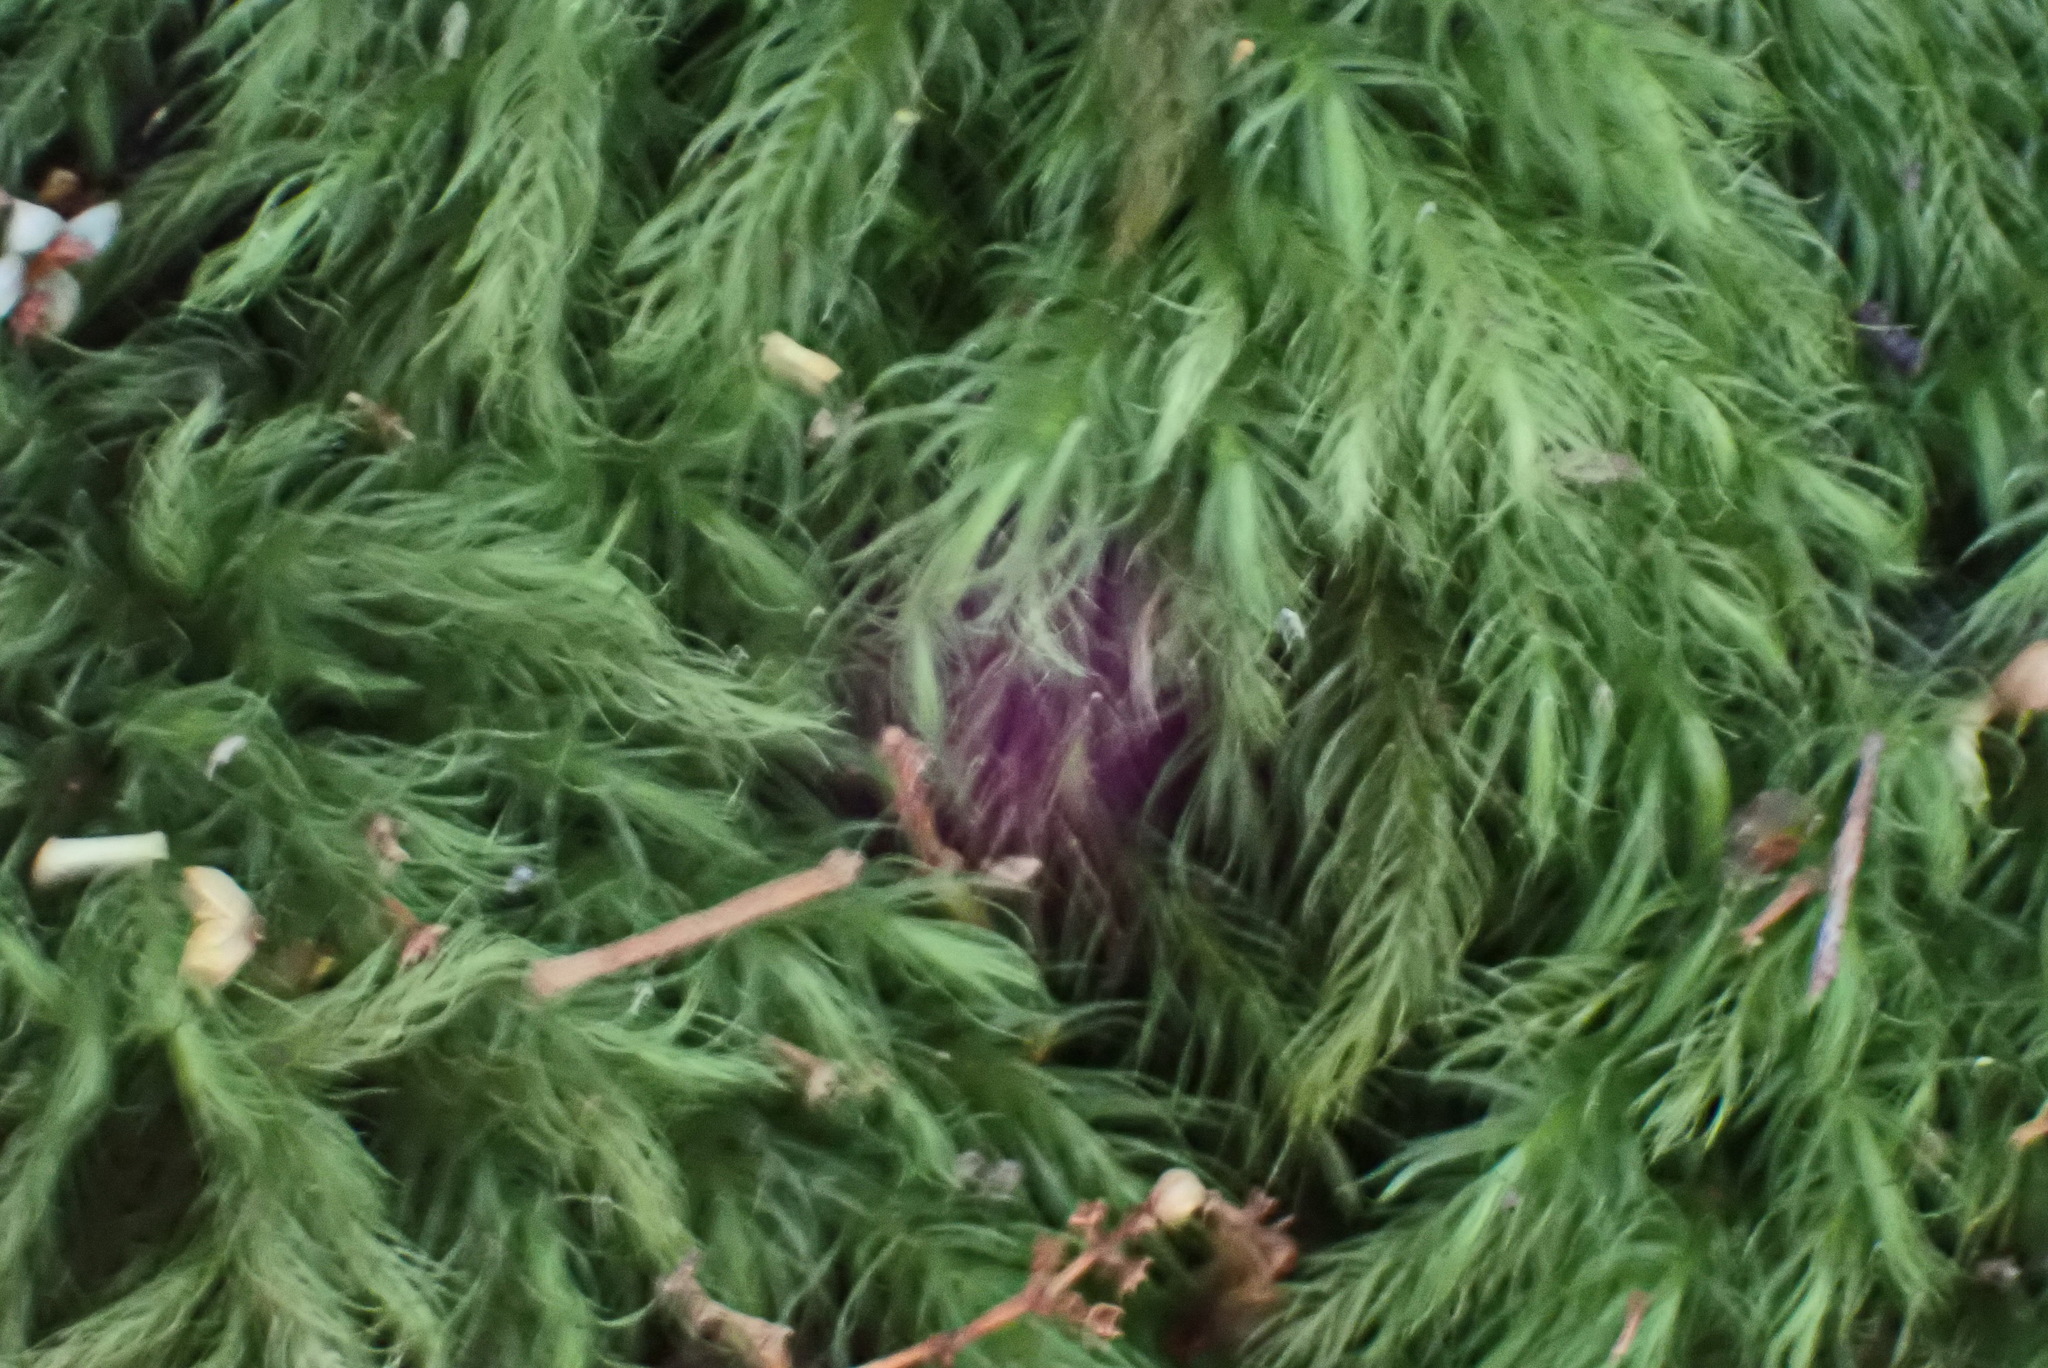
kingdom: Plantae
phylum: Bryophyta
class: Bryopsida
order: Rhizogoniales
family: Calomniaceae
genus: Pyrrhobryum
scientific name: Pyrrhobryum spiniforme
